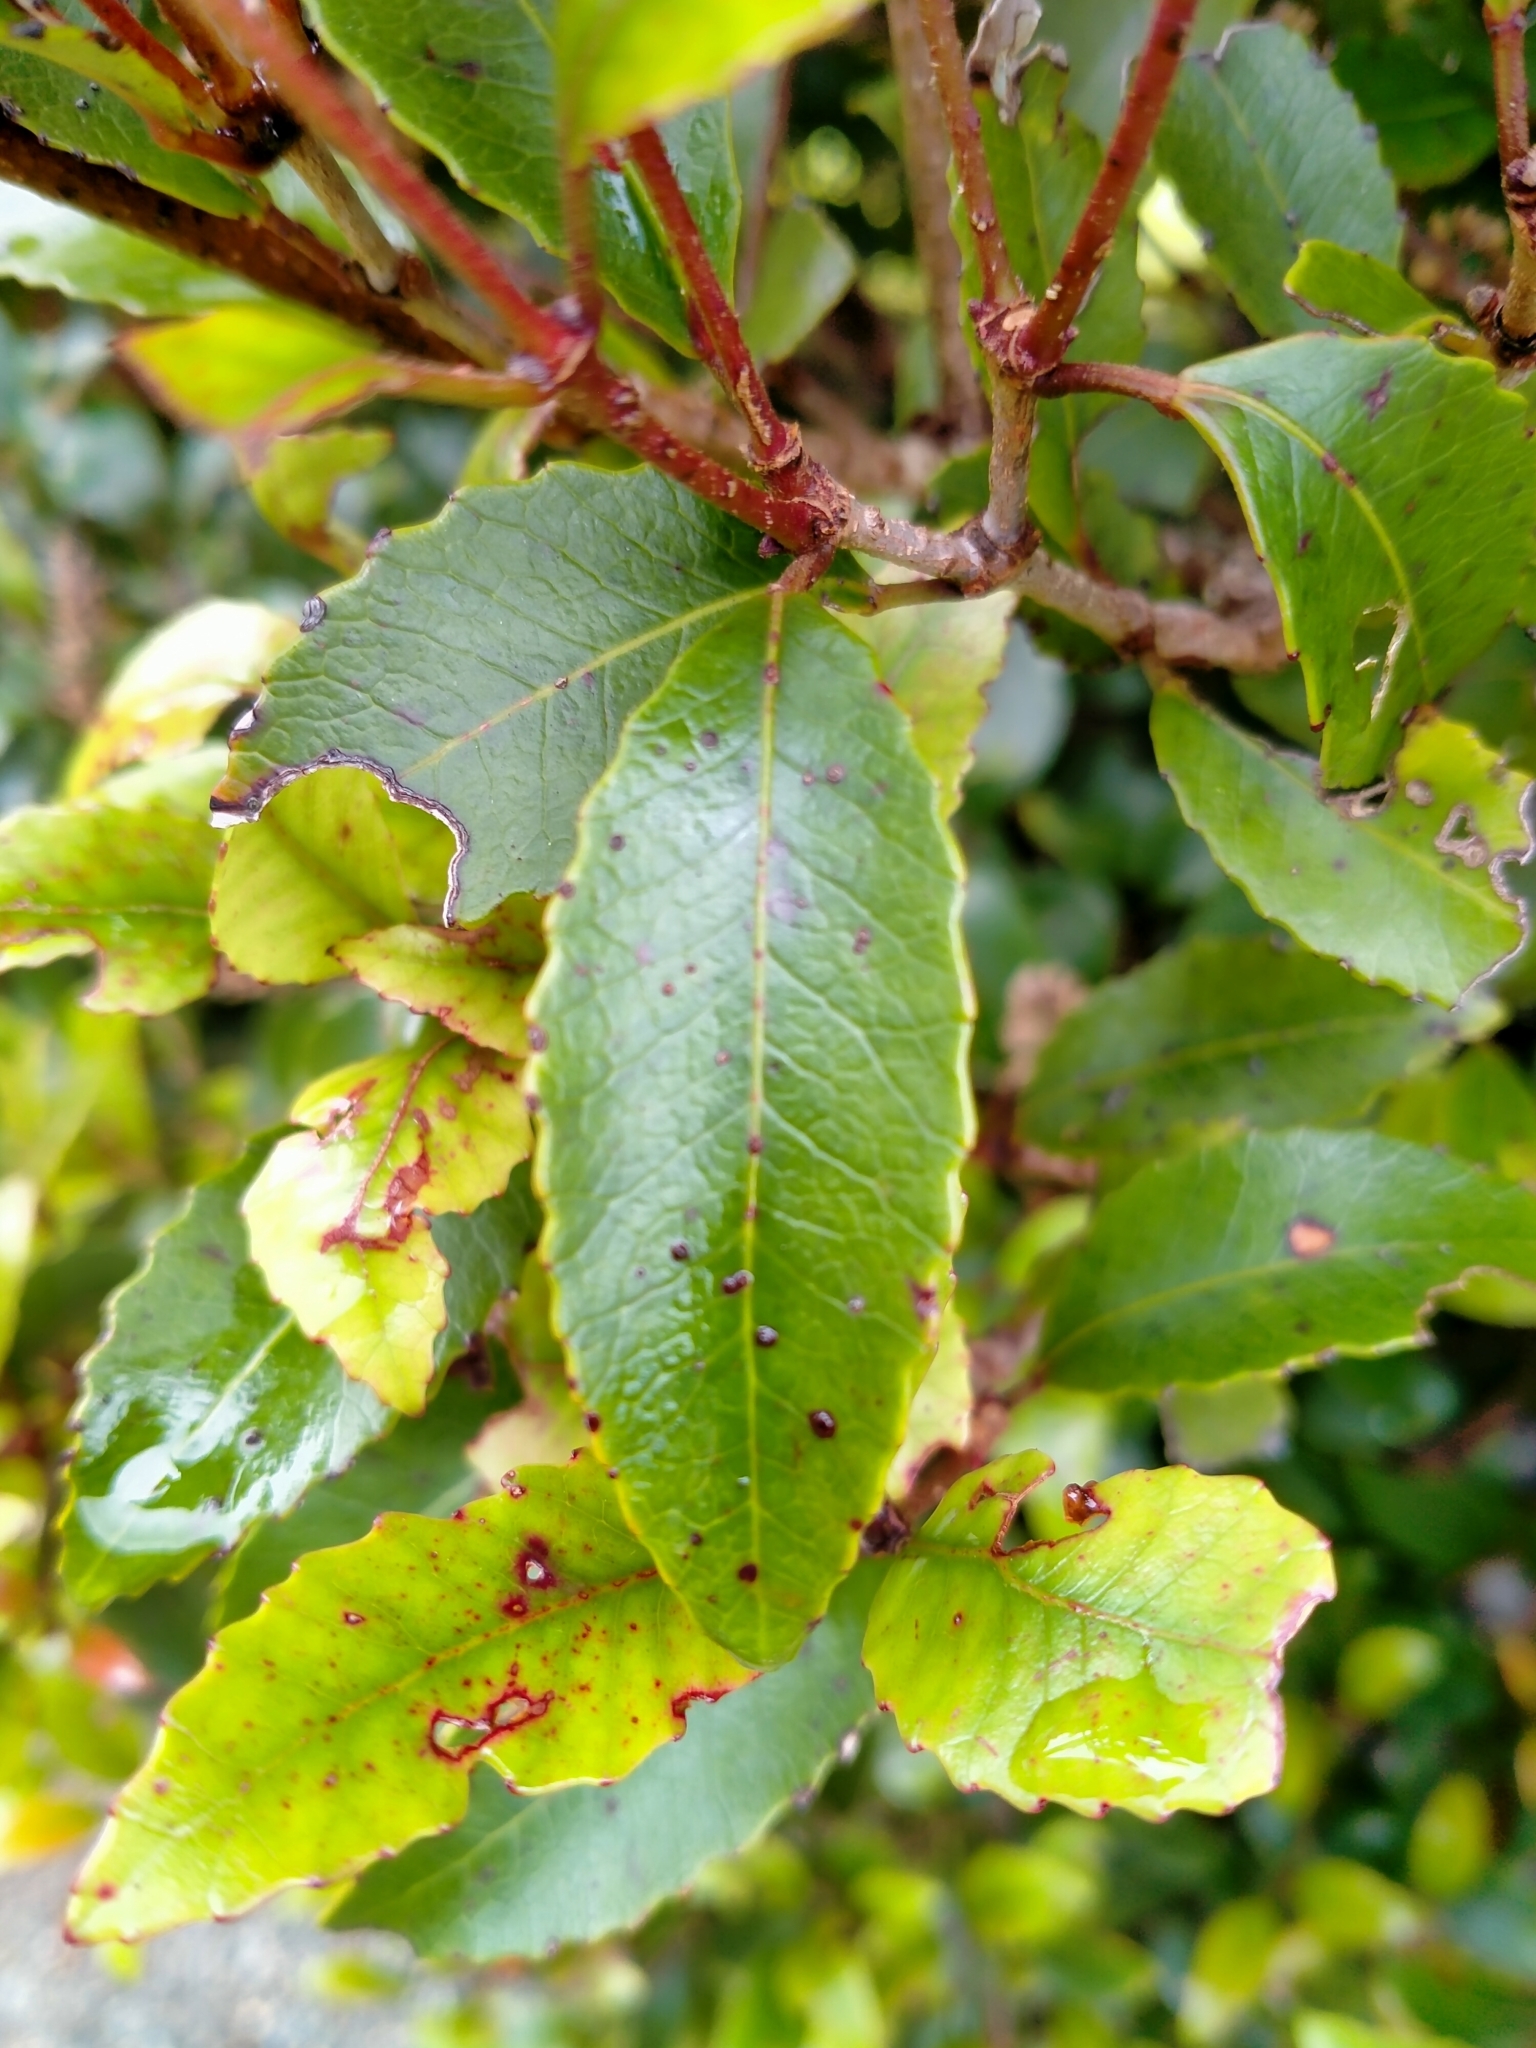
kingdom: Plantae
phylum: Tracheophyta
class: Magnoliopsida
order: Oxalidales
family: Cunoniaceae
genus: Pterophylla
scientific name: Pterophylla racemosa
